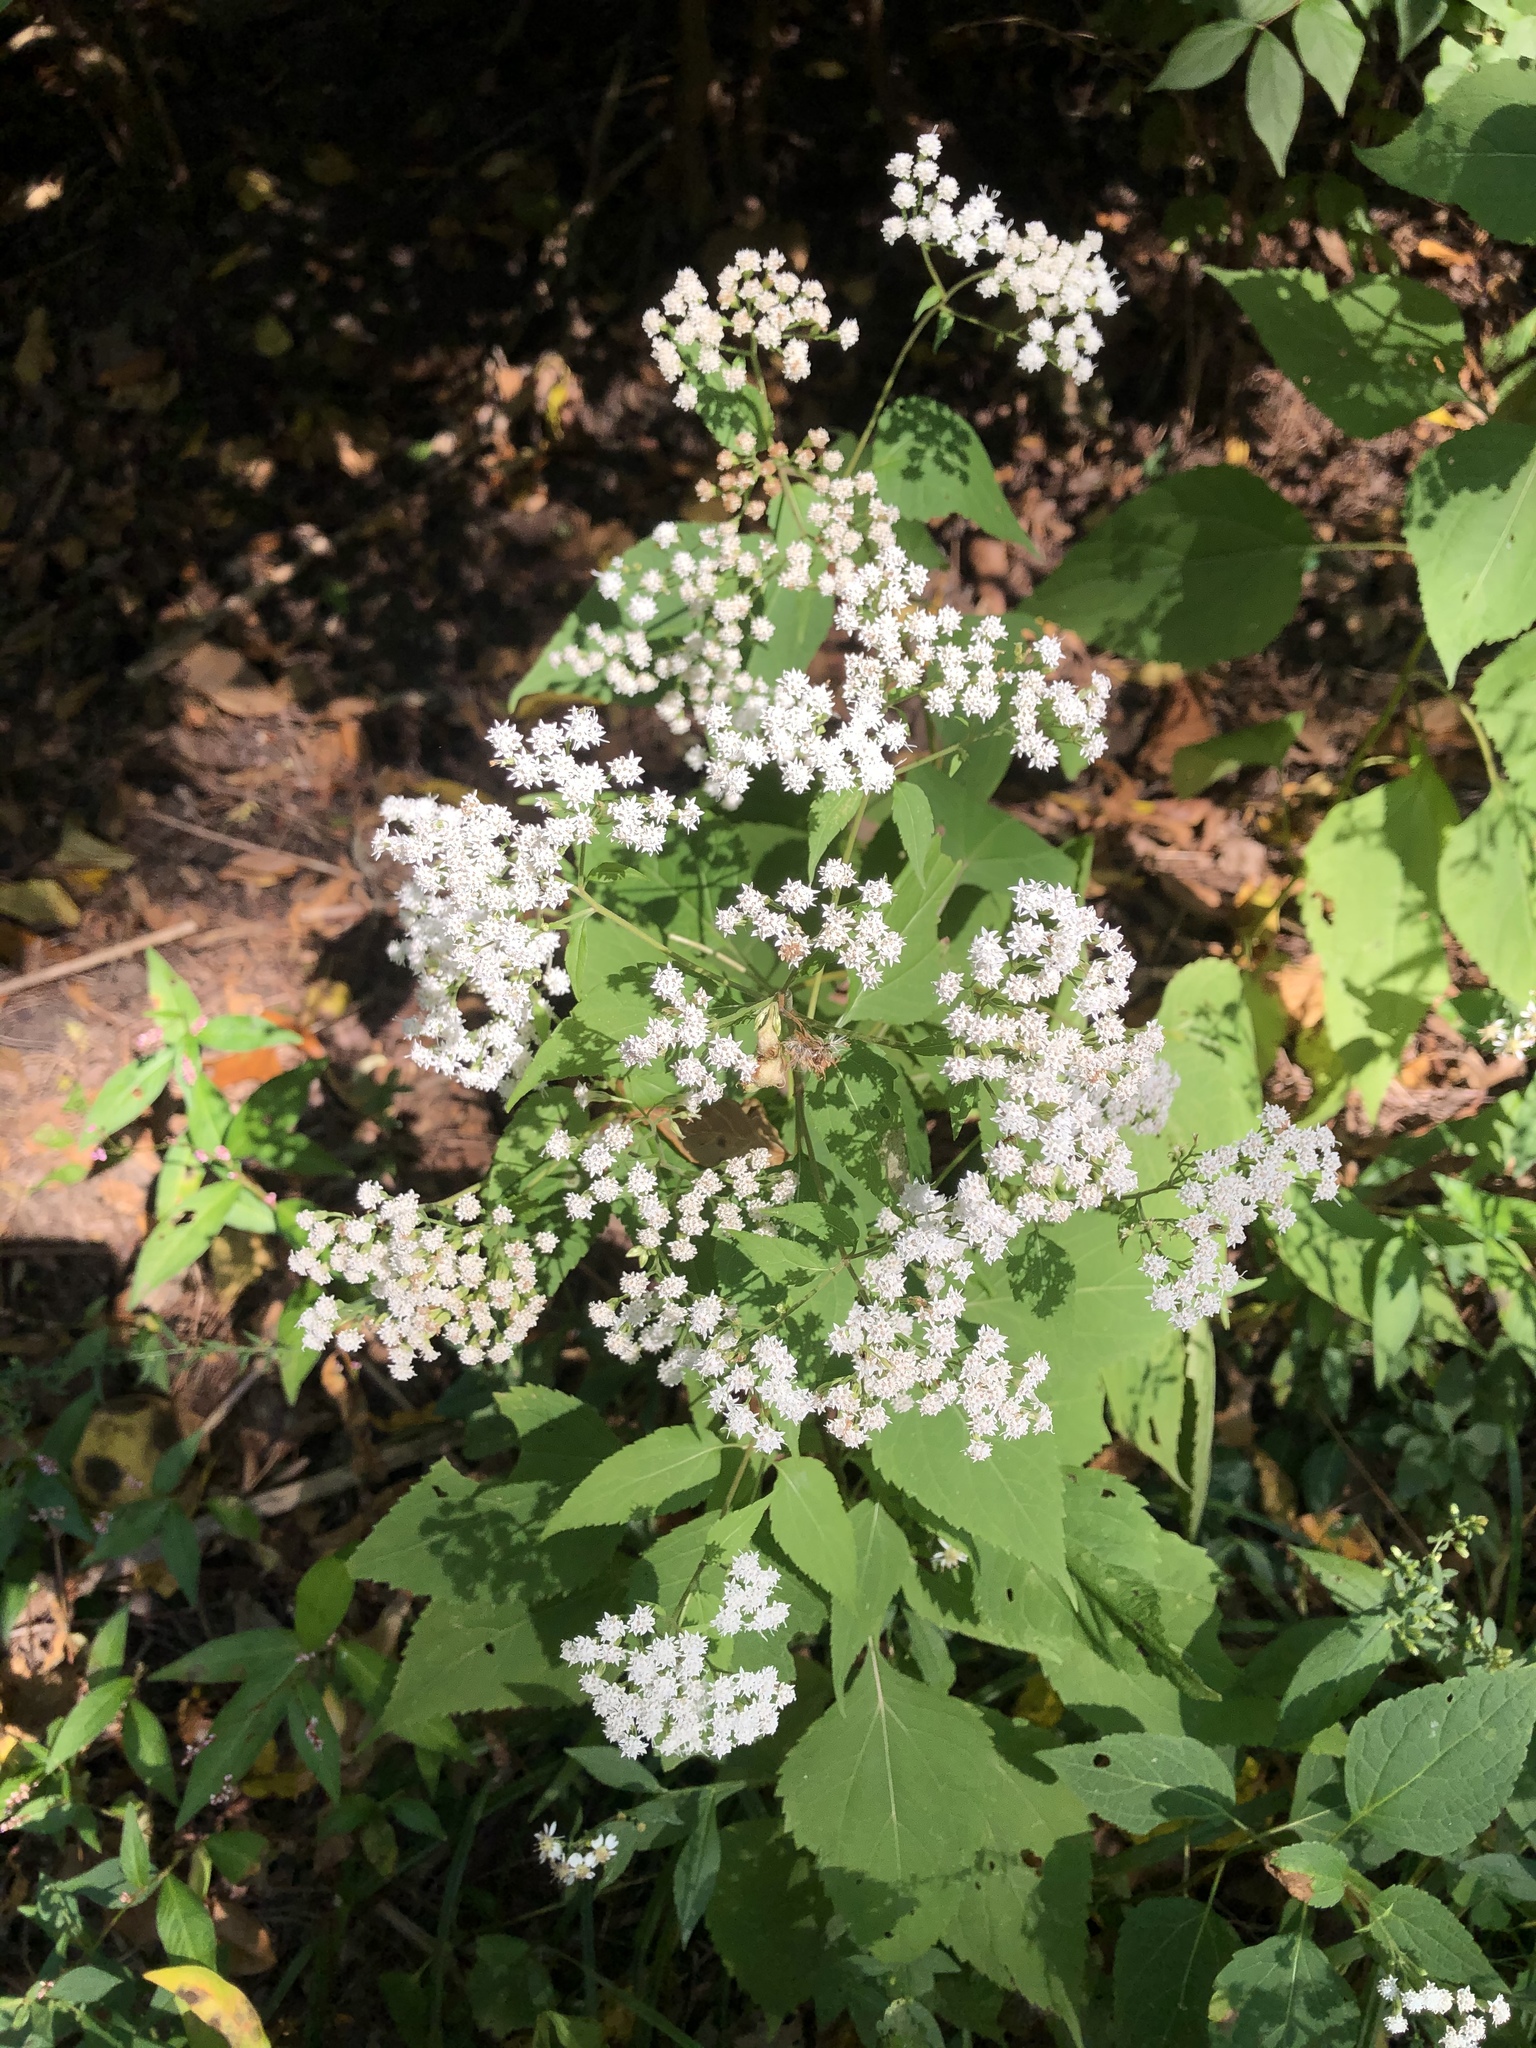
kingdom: Plantae
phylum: Tracheophyta
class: Magnoliopsida
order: Asterales
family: Asteraceae
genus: Ageratina
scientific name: Ageratina altissima
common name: White snakeroot
